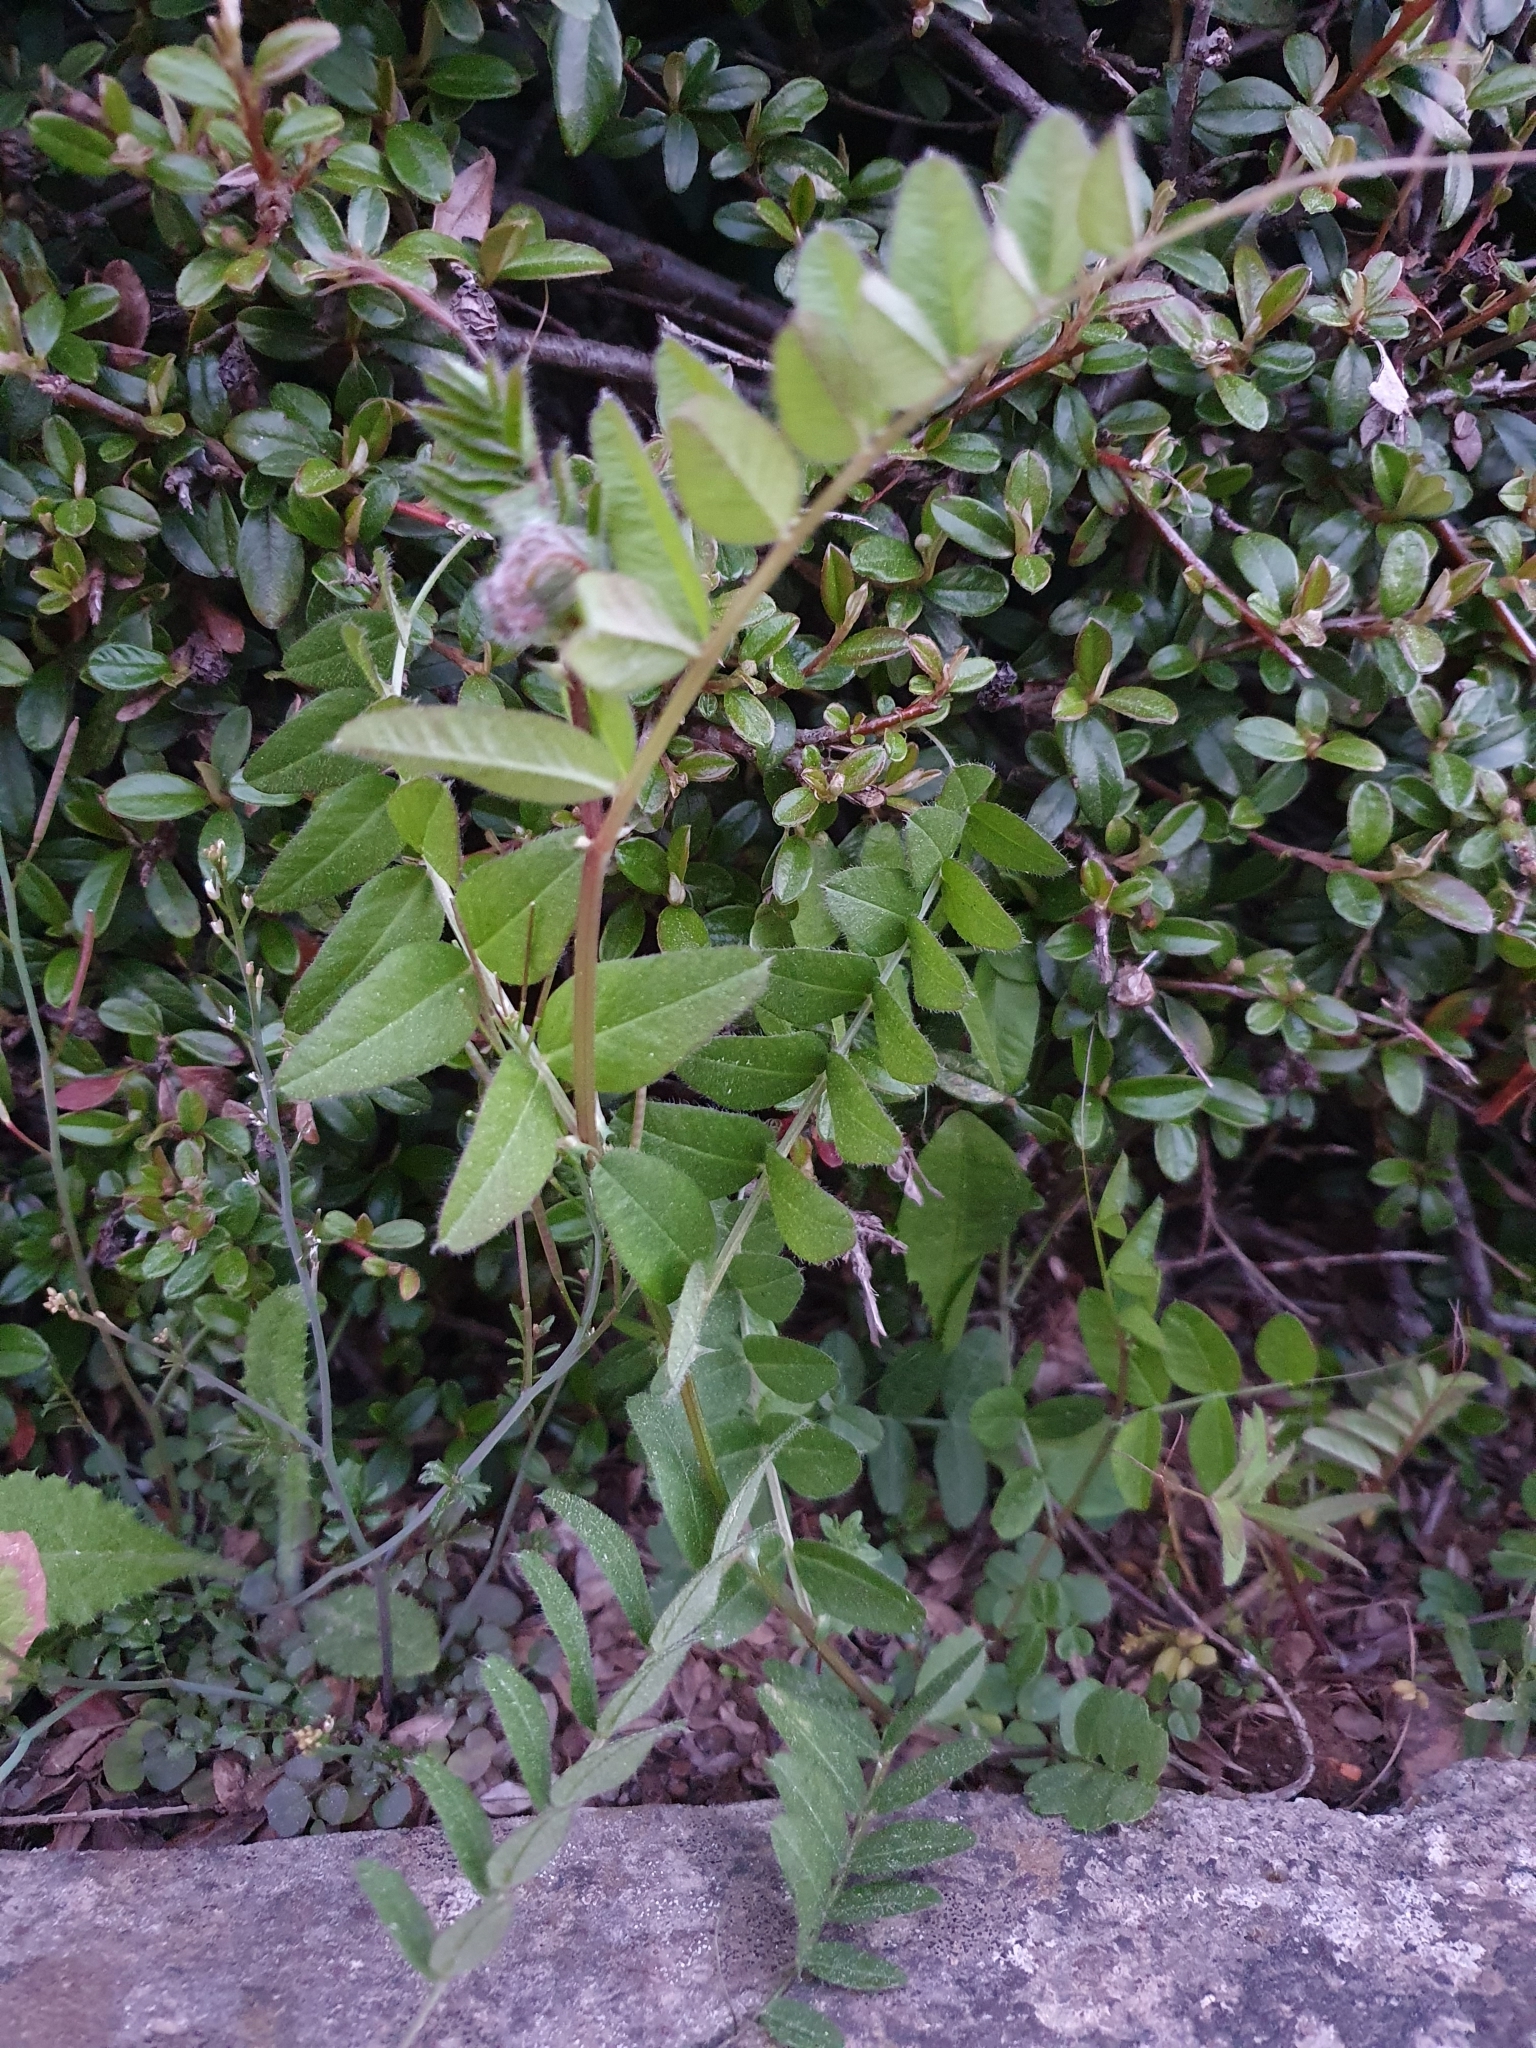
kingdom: Plantae
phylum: Tracheophyta
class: Magnoliopsida
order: Fabales
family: Fabaceae
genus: Vicia
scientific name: Vicia sepium
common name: Bush vetch
